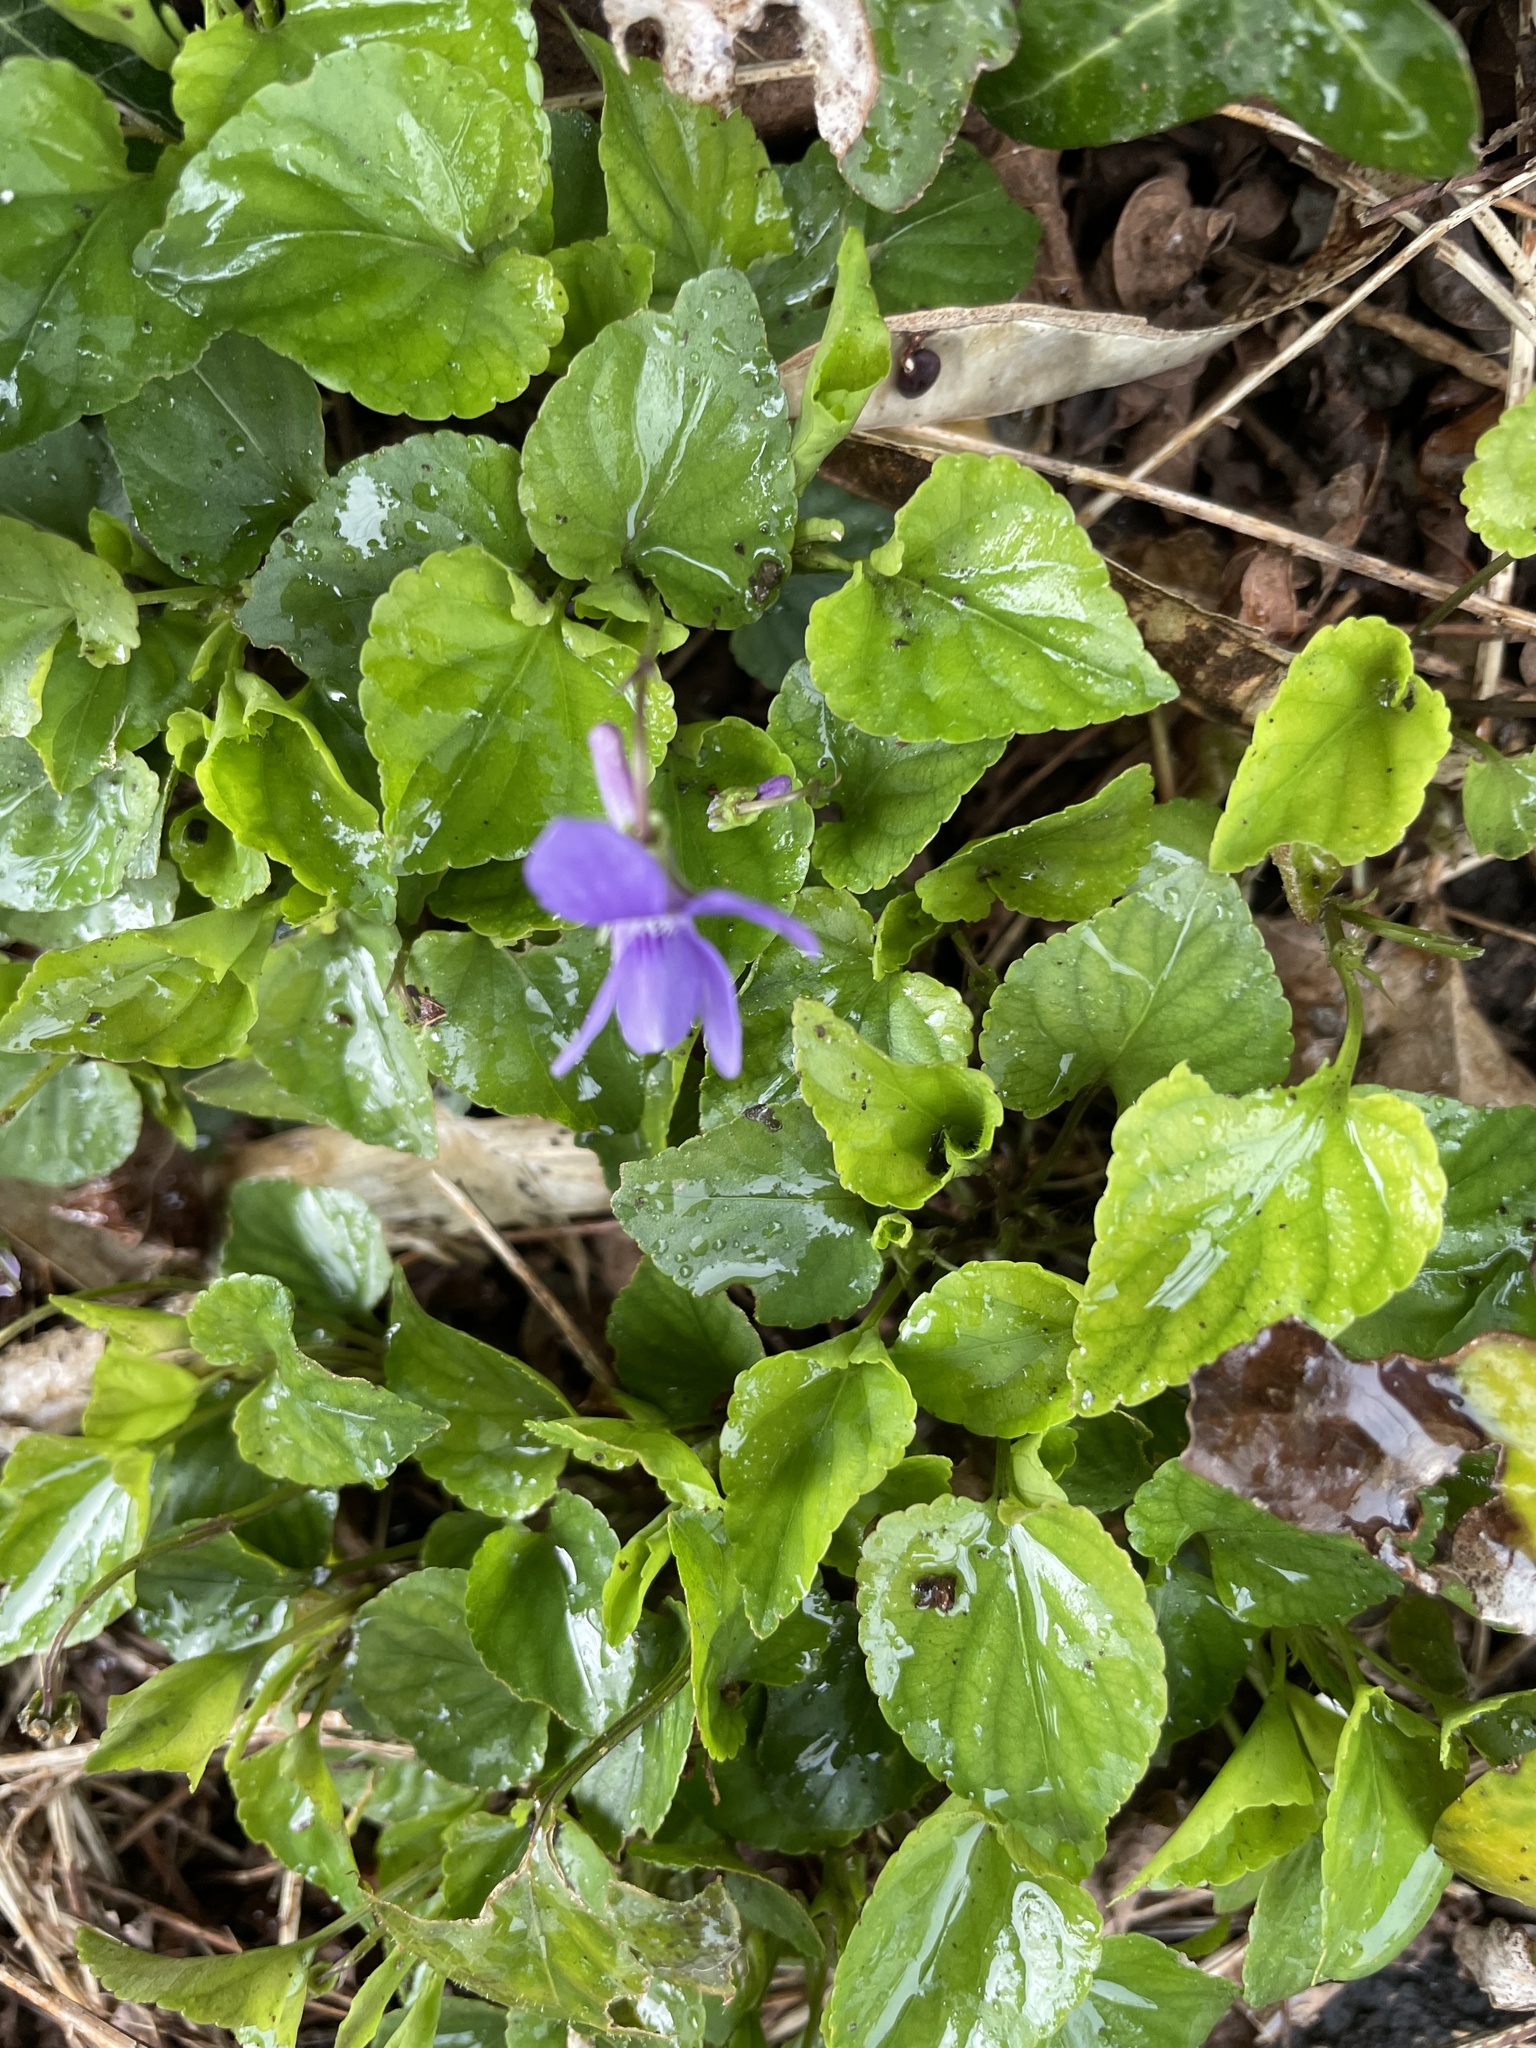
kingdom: Plantae
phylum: Tracheophyta
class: Magnoliopsida
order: Malpighiales
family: Violaceae
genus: Viola
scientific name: Viola reichenbachiana
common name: Early dog-violet
